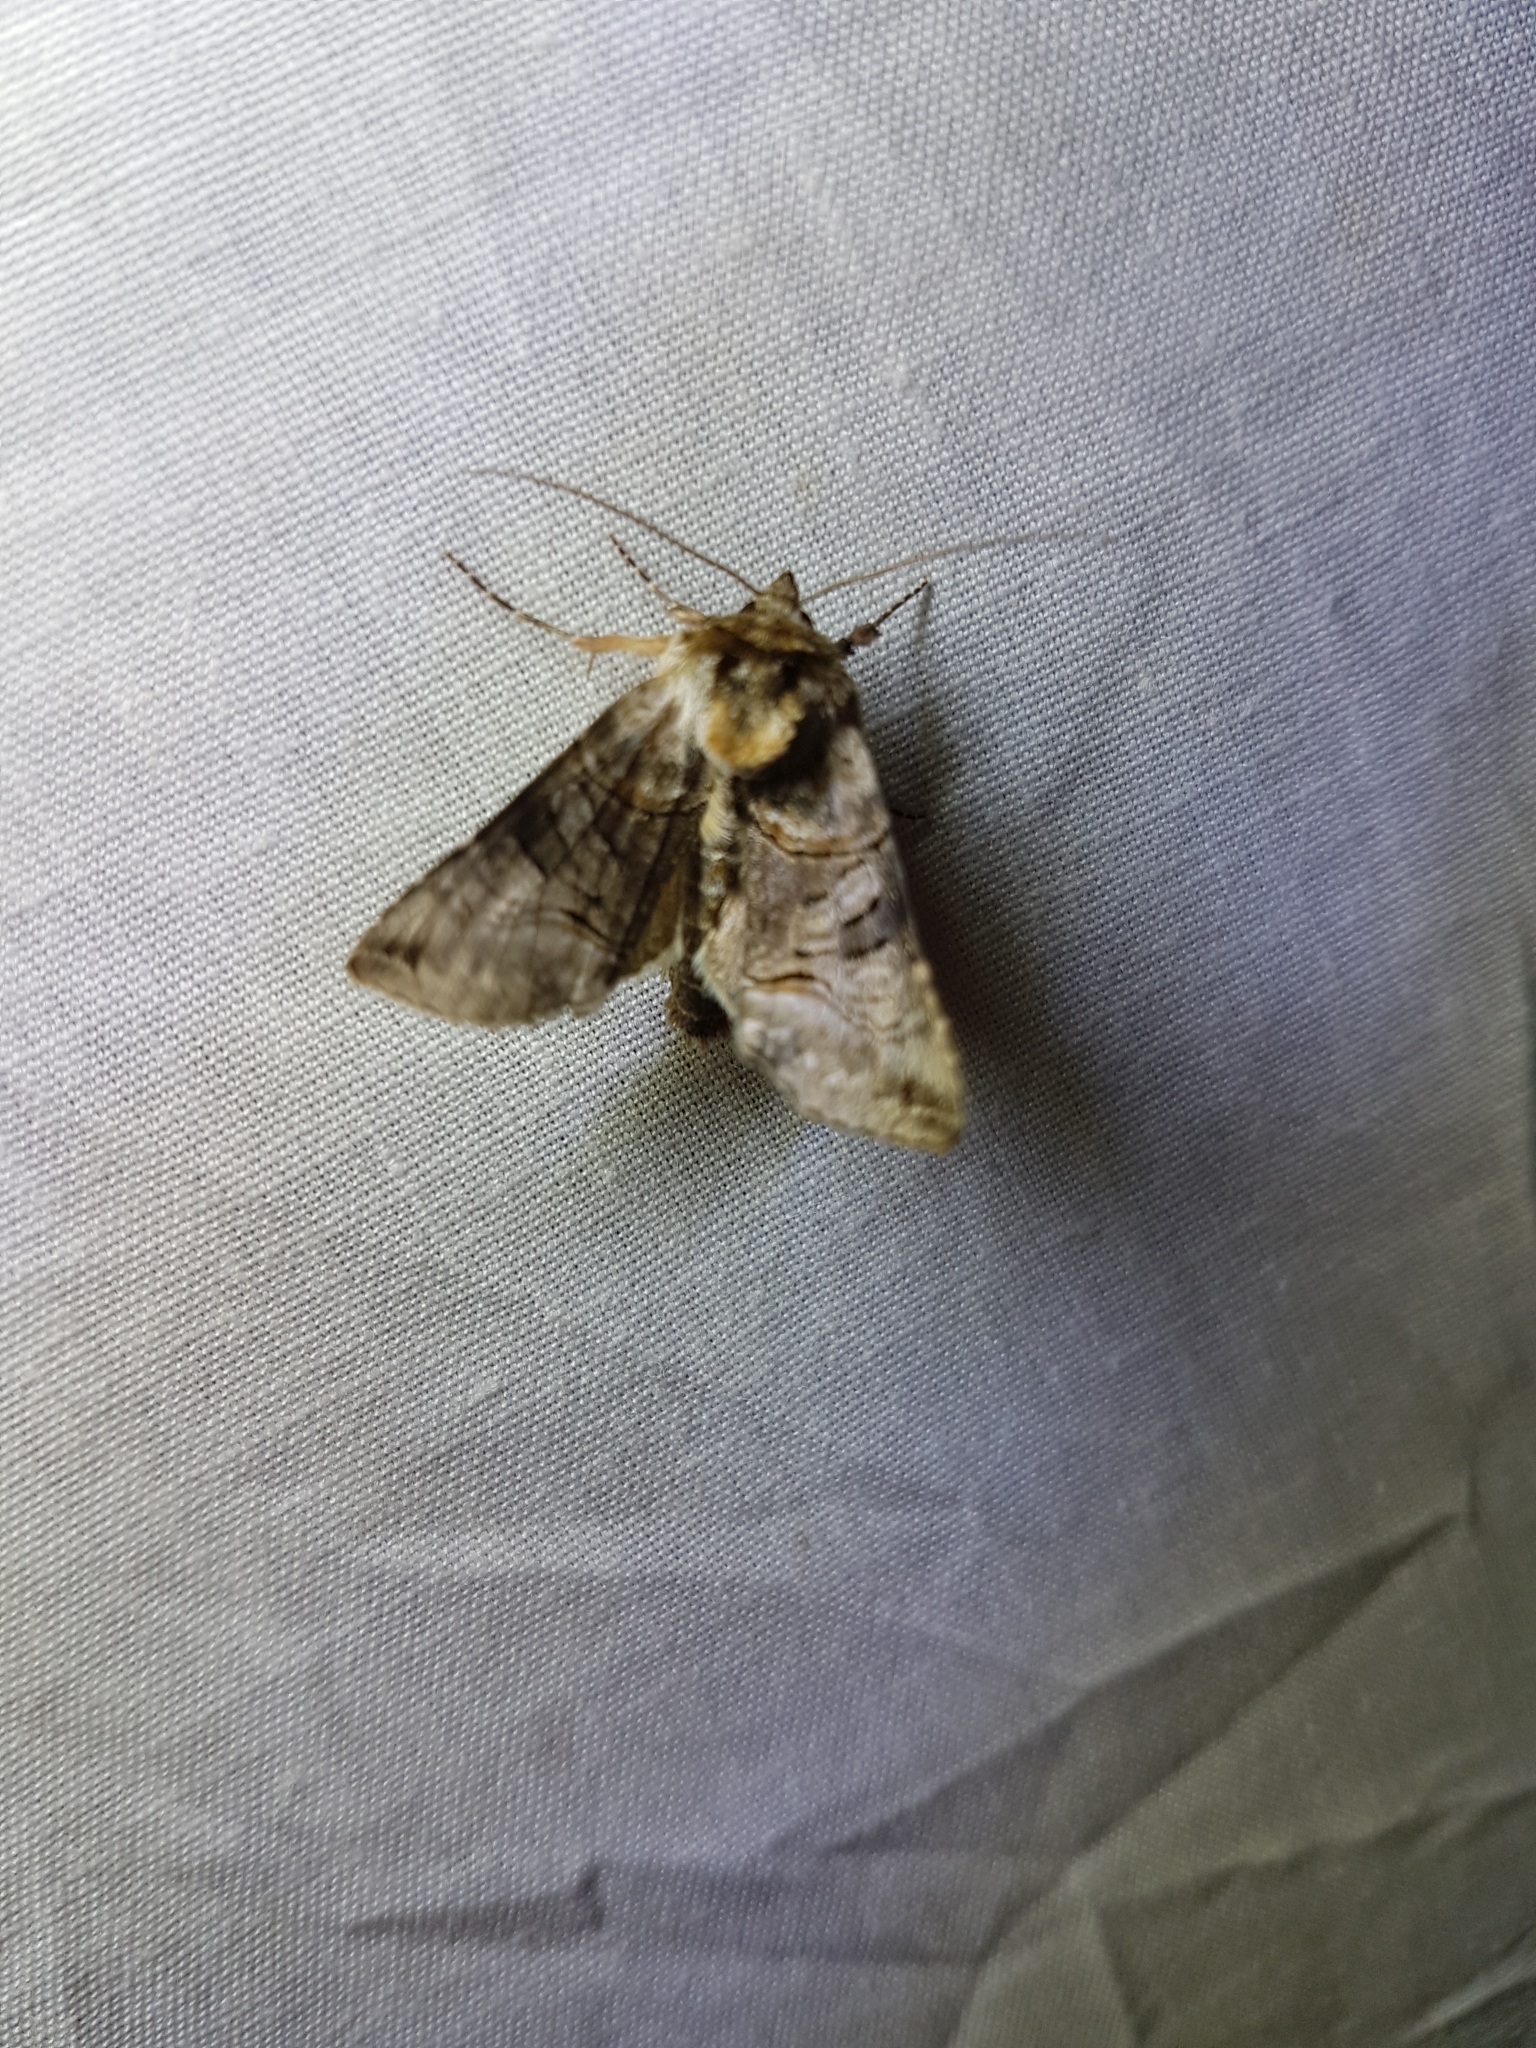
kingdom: Animalia
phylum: Arthropoda
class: Insecta
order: Lepidoptera
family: Noctuidae
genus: Abrostola
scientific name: Abrostola tripartita
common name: Spectacle
